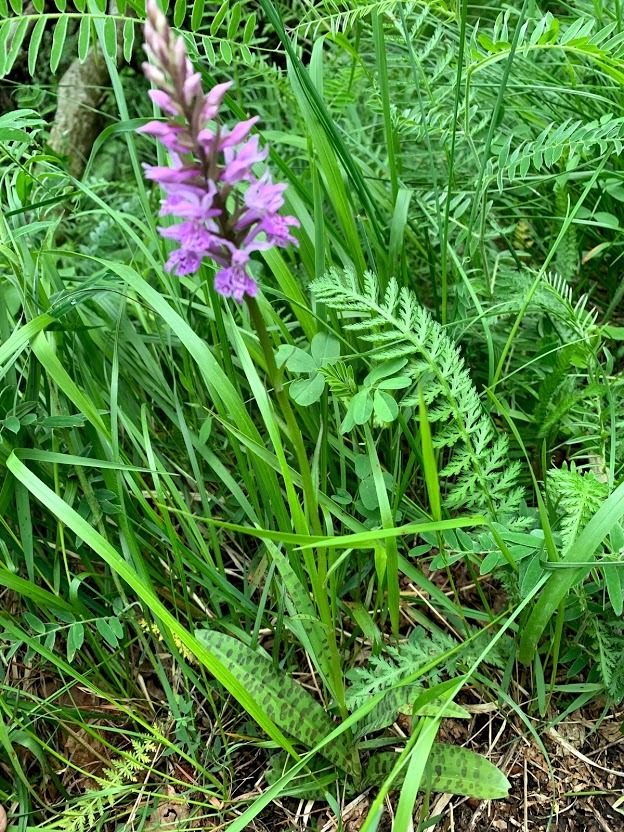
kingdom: Plantae
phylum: Tracheophyta
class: Liliopsida
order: Asparagales
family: Orchidaceae
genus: Dactylorhiza
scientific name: Dactylorhiza maculata
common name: Heath spotted-orchid
